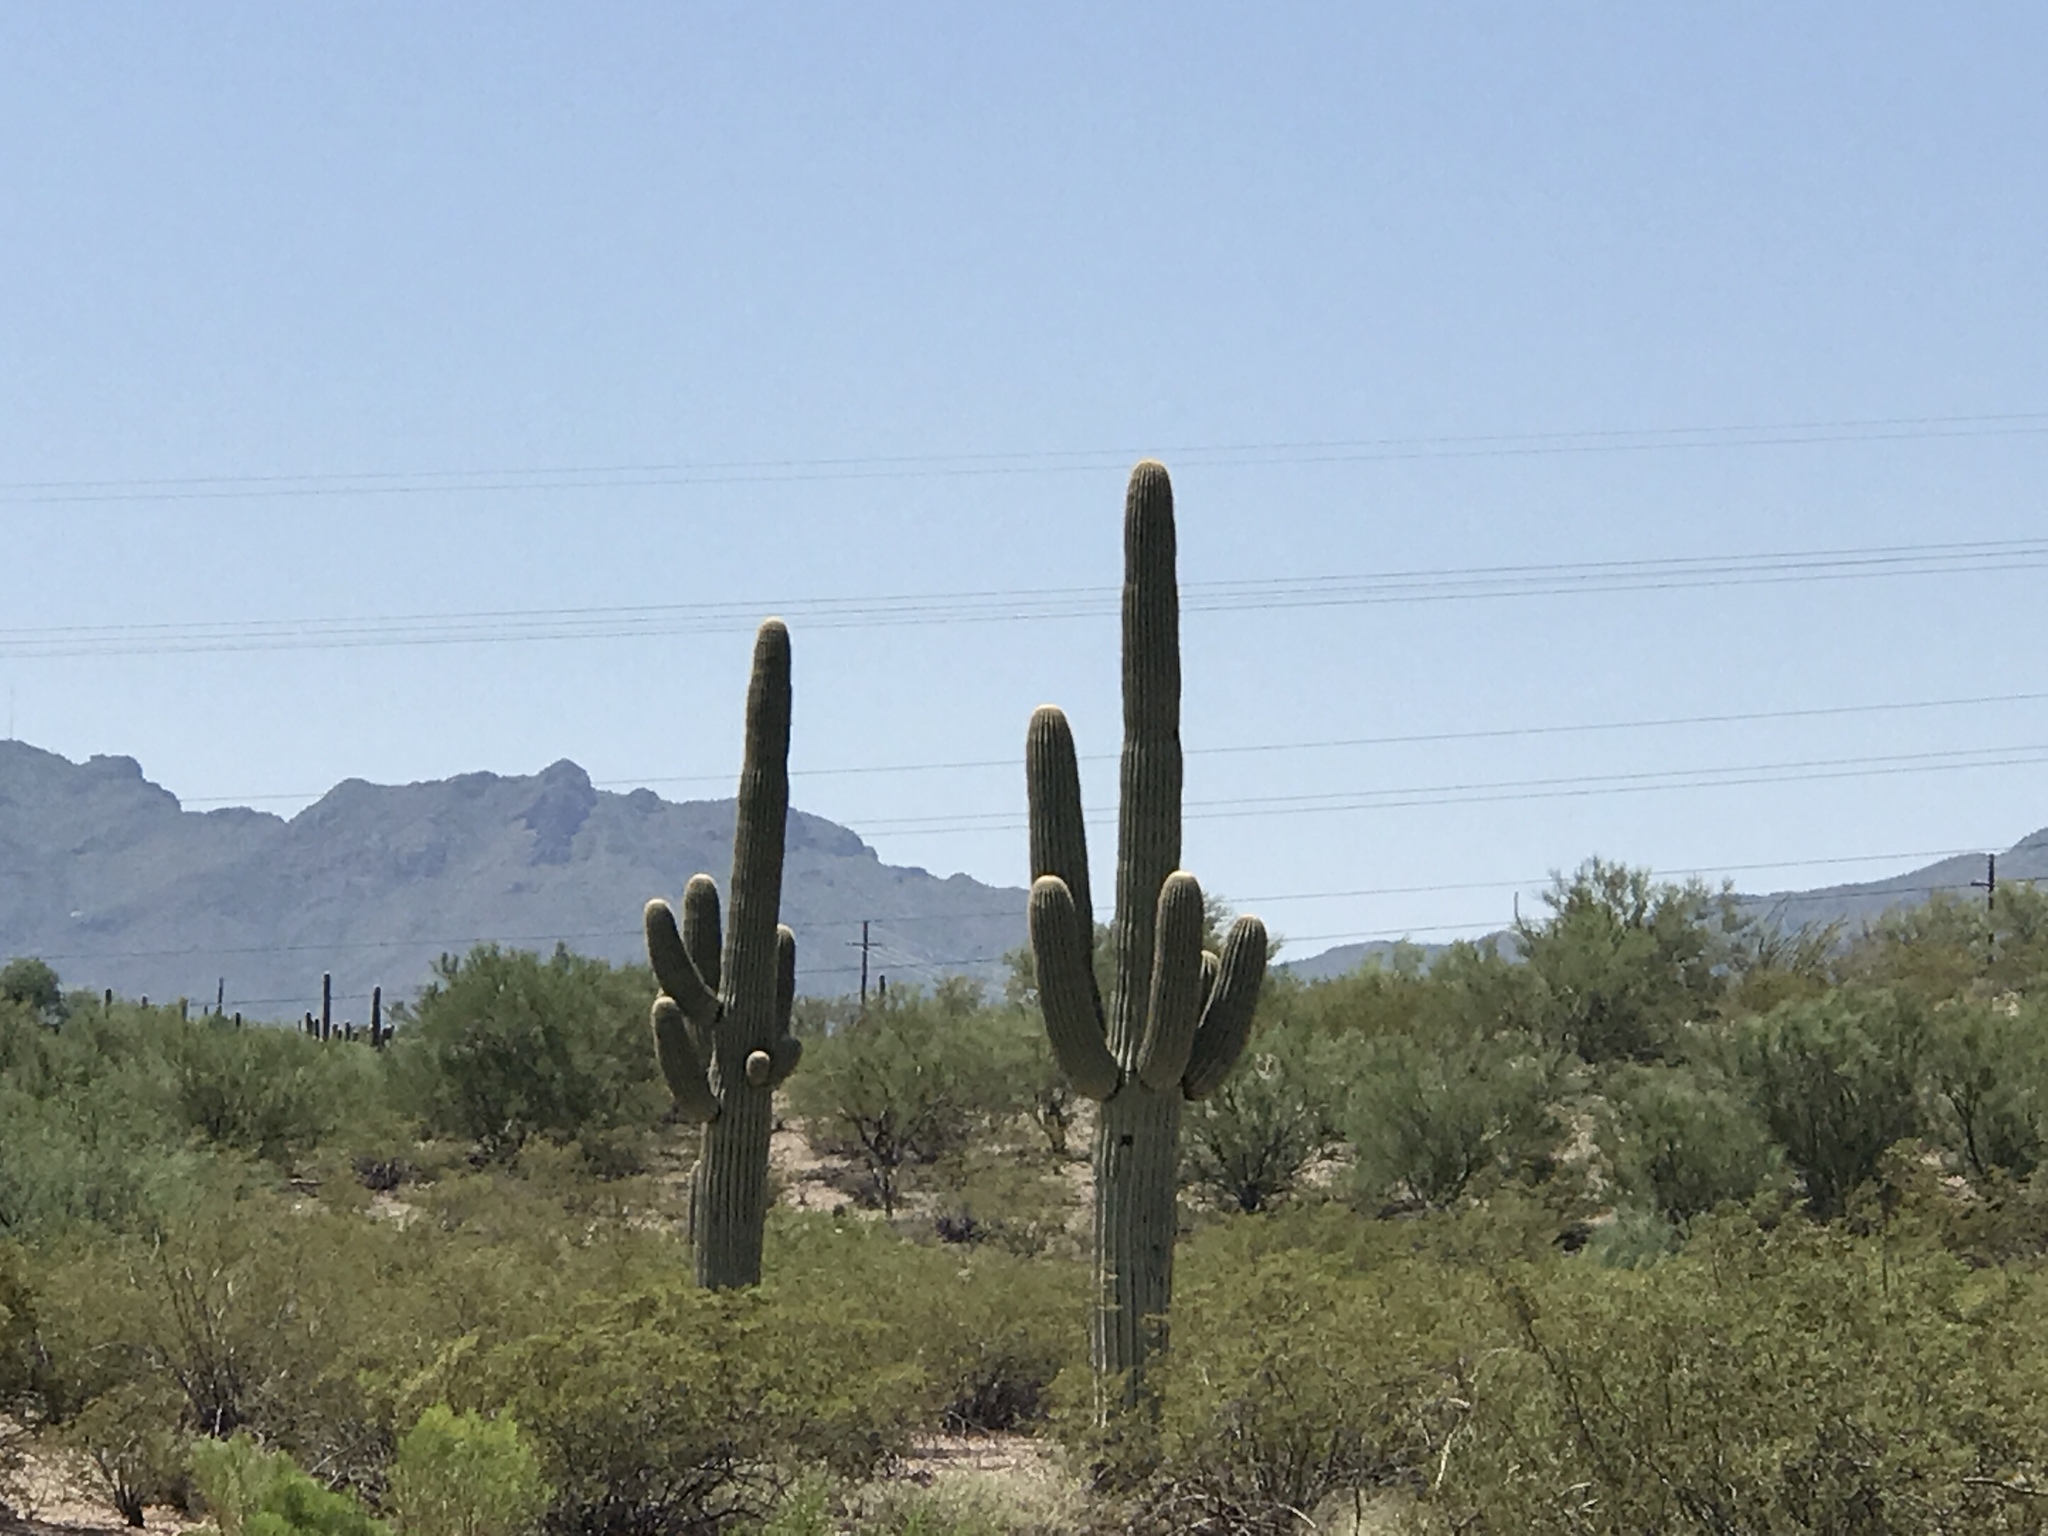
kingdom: Plantae
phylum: Tracheophyta
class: Magnoliopsida
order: Caryophyllales
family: Cactaceae
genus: Carnegiea
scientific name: Carnegiea gigantea
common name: Saguaro
